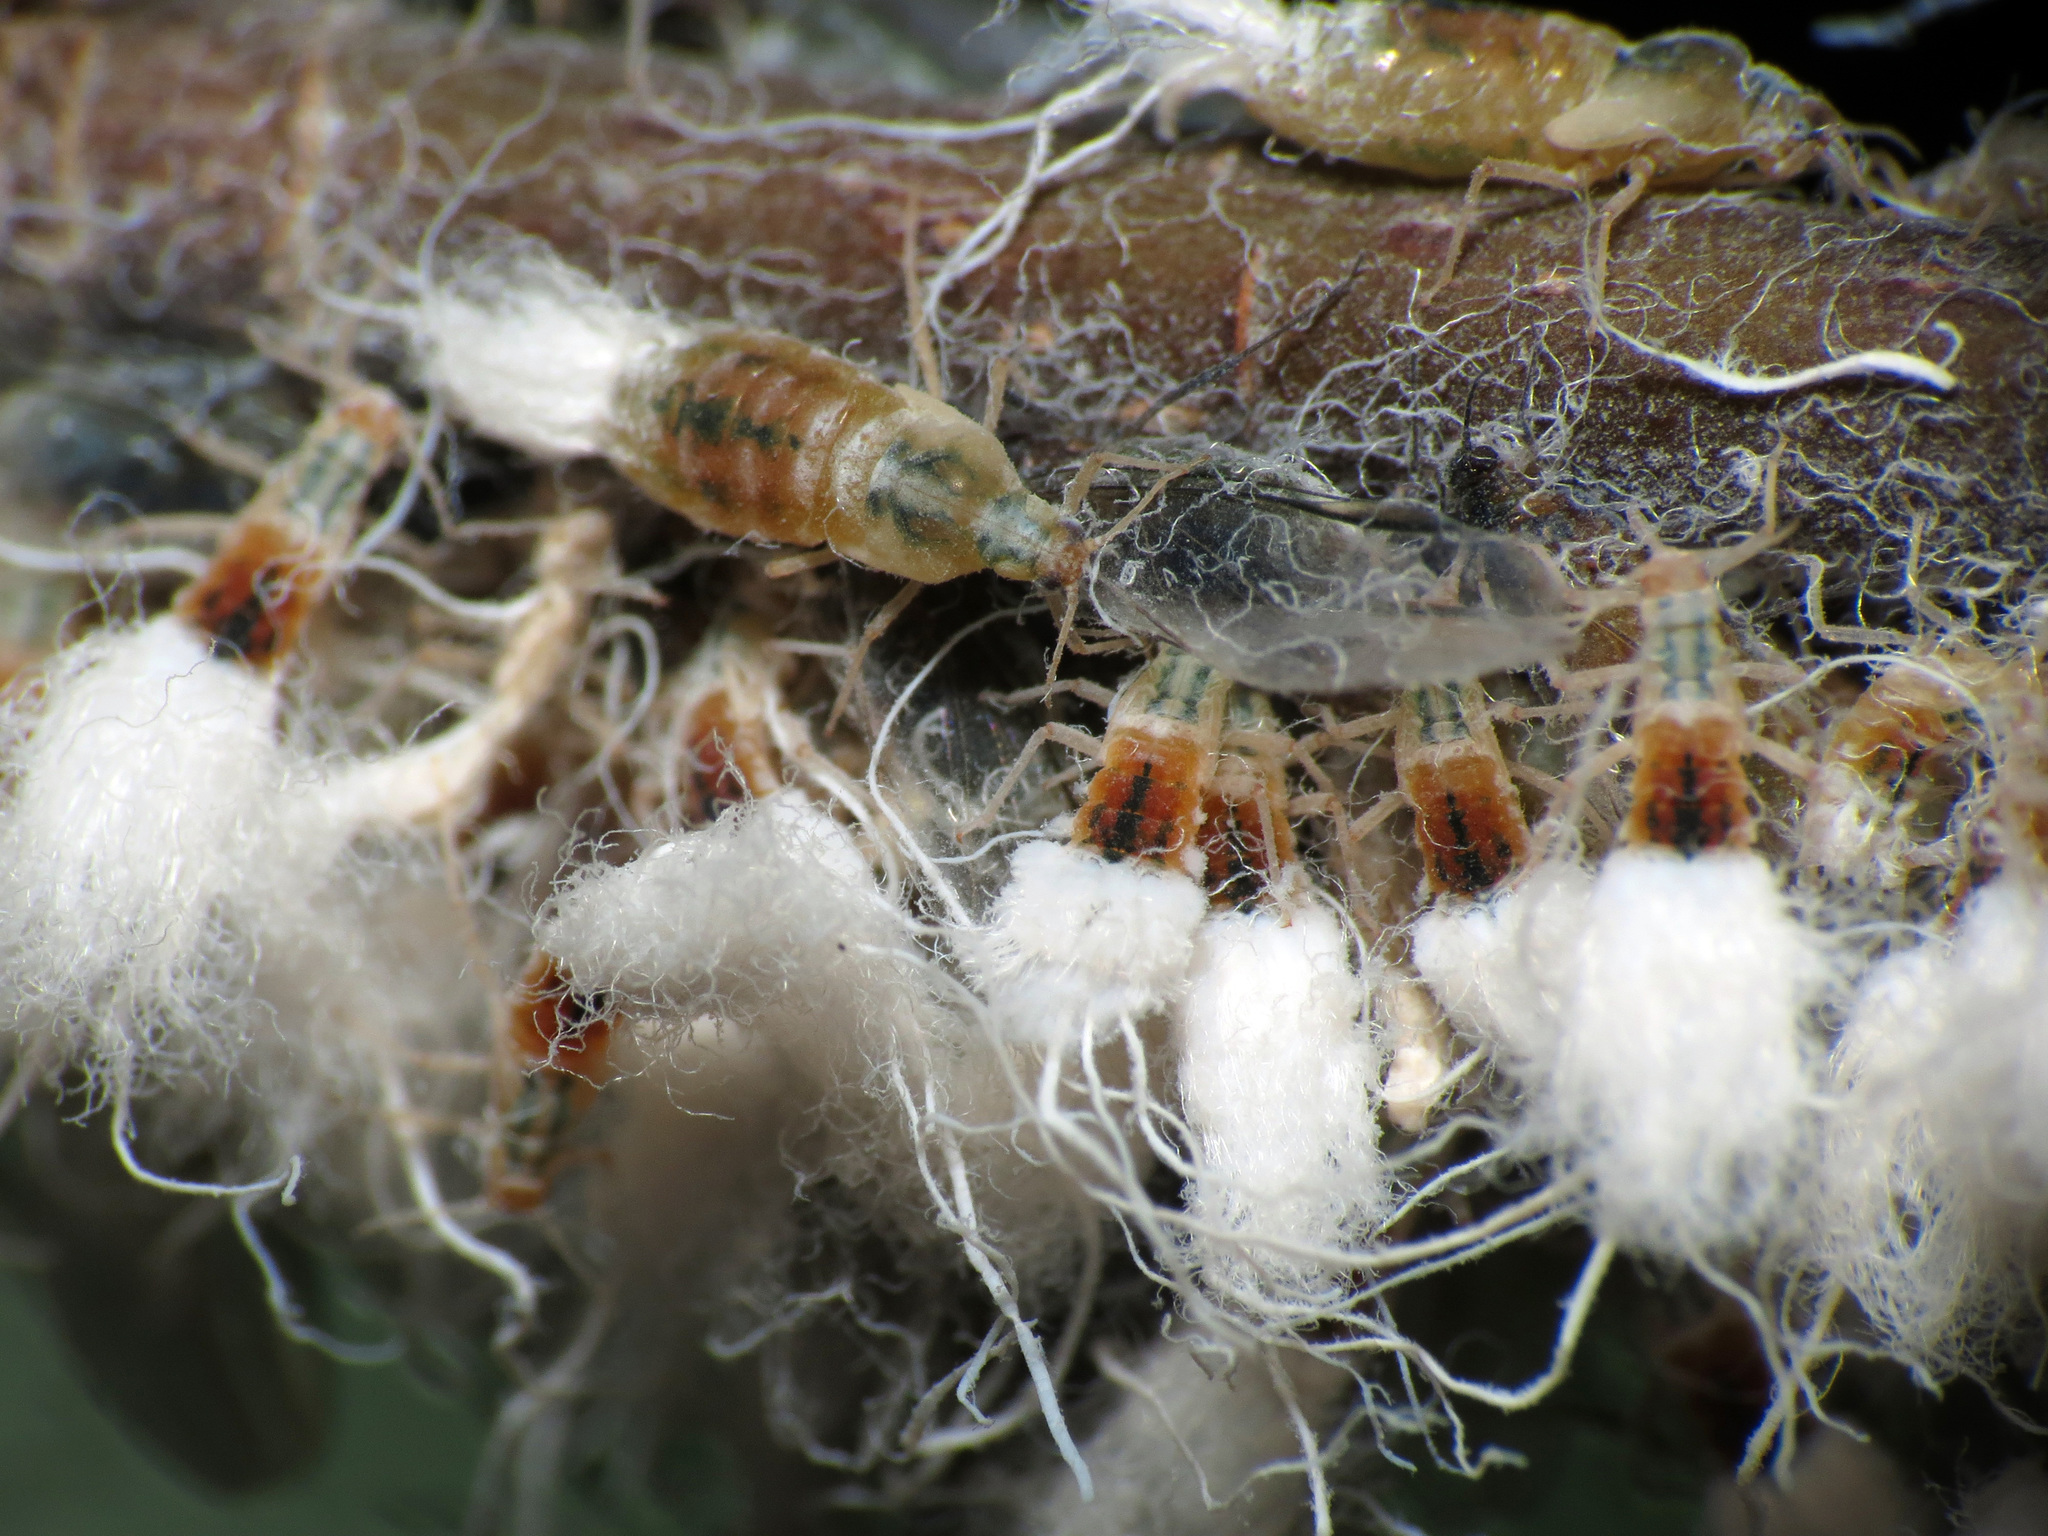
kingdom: Animalia
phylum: Arthropoda
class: Insecta
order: Hemiptera
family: Aphididae
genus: Grylloprociphilus
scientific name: Grylloprociphilus imbricator
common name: Beech blight aphid
